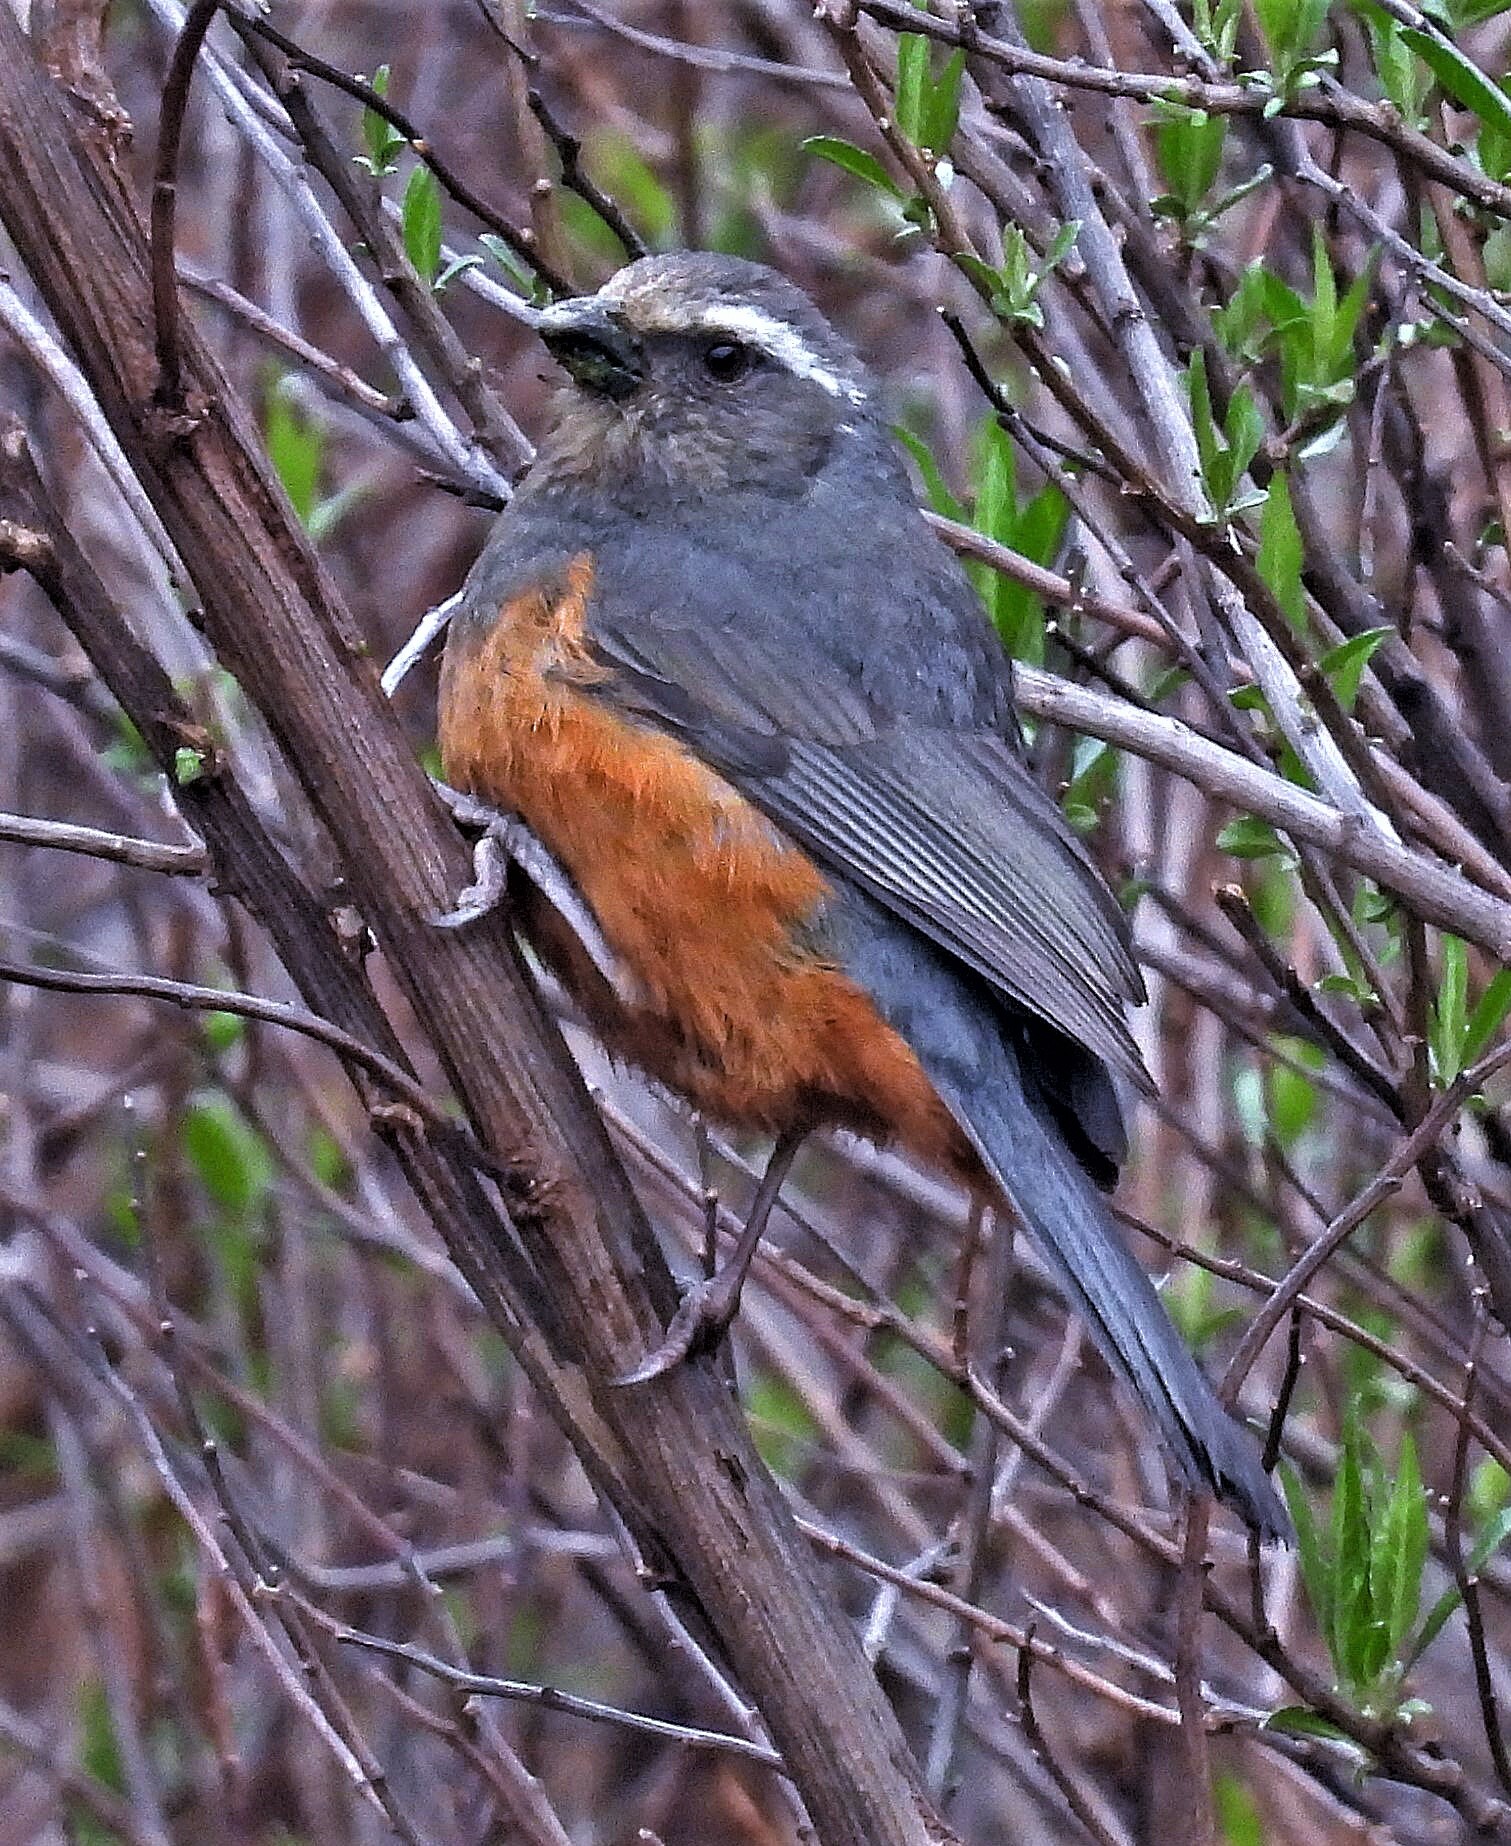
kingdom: Animalia
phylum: Chordata
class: Aves
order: Passeriformes
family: Thraupidae
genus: Pseudosaltator
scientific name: Pseudosaltator rufiventris
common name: Rufous-bellied mountain-tanager
